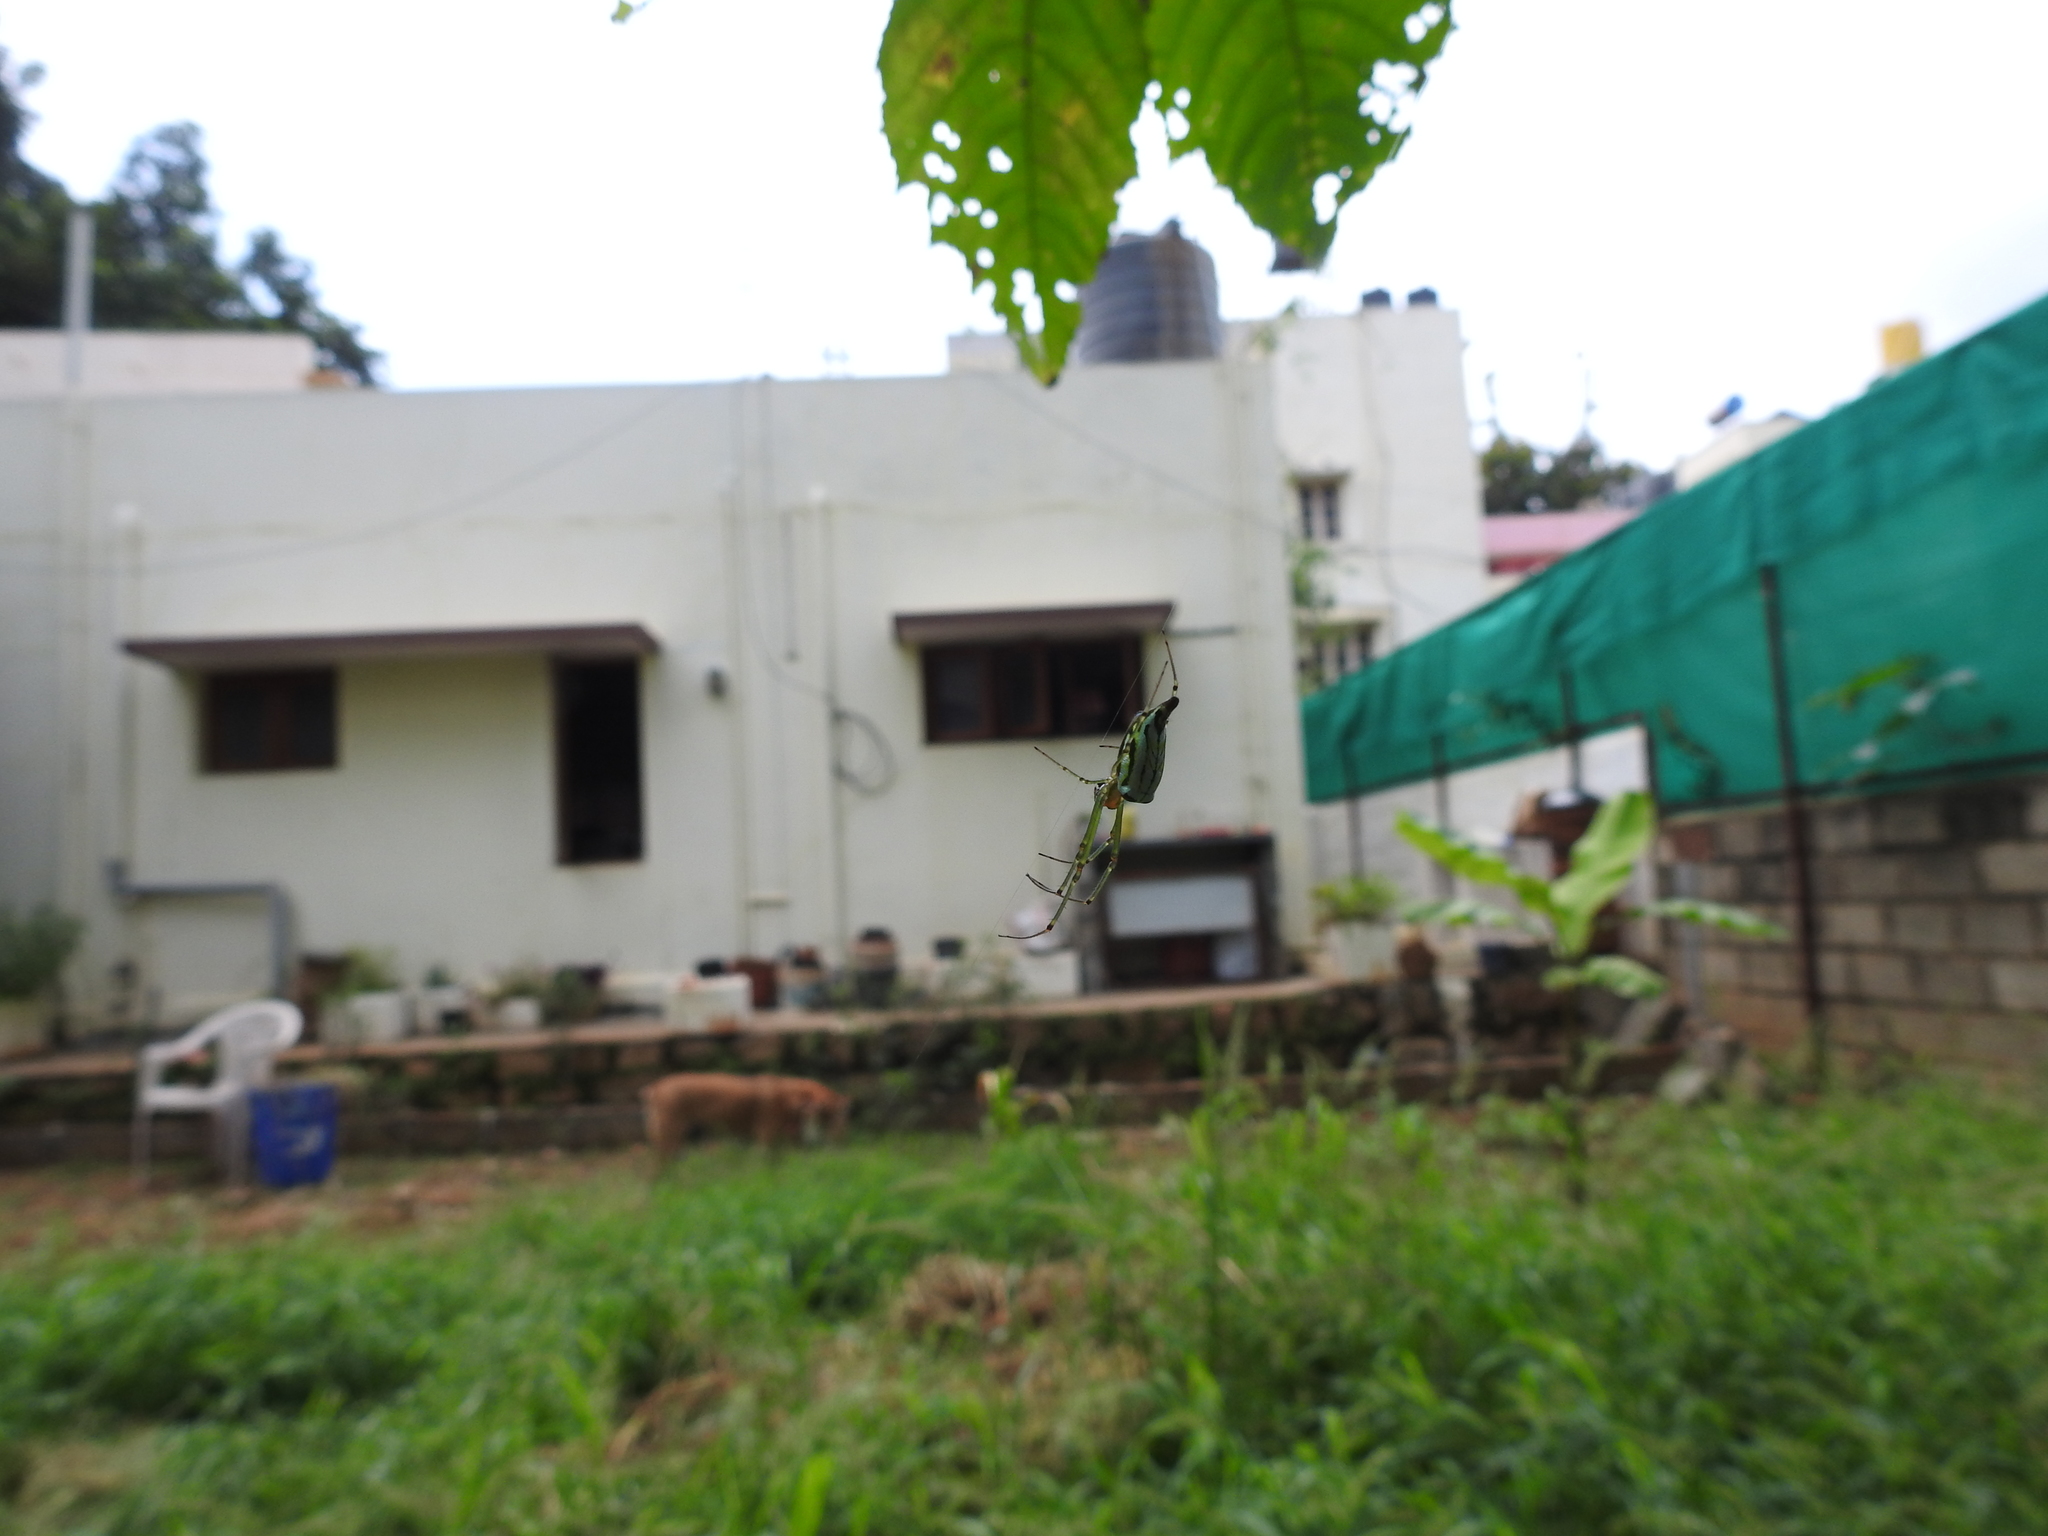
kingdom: Animalia
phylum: Arthropoda
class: Arachnida
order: Araneae
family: Tetragnathidae
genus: Leucauge
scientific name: Leucauge decorata
